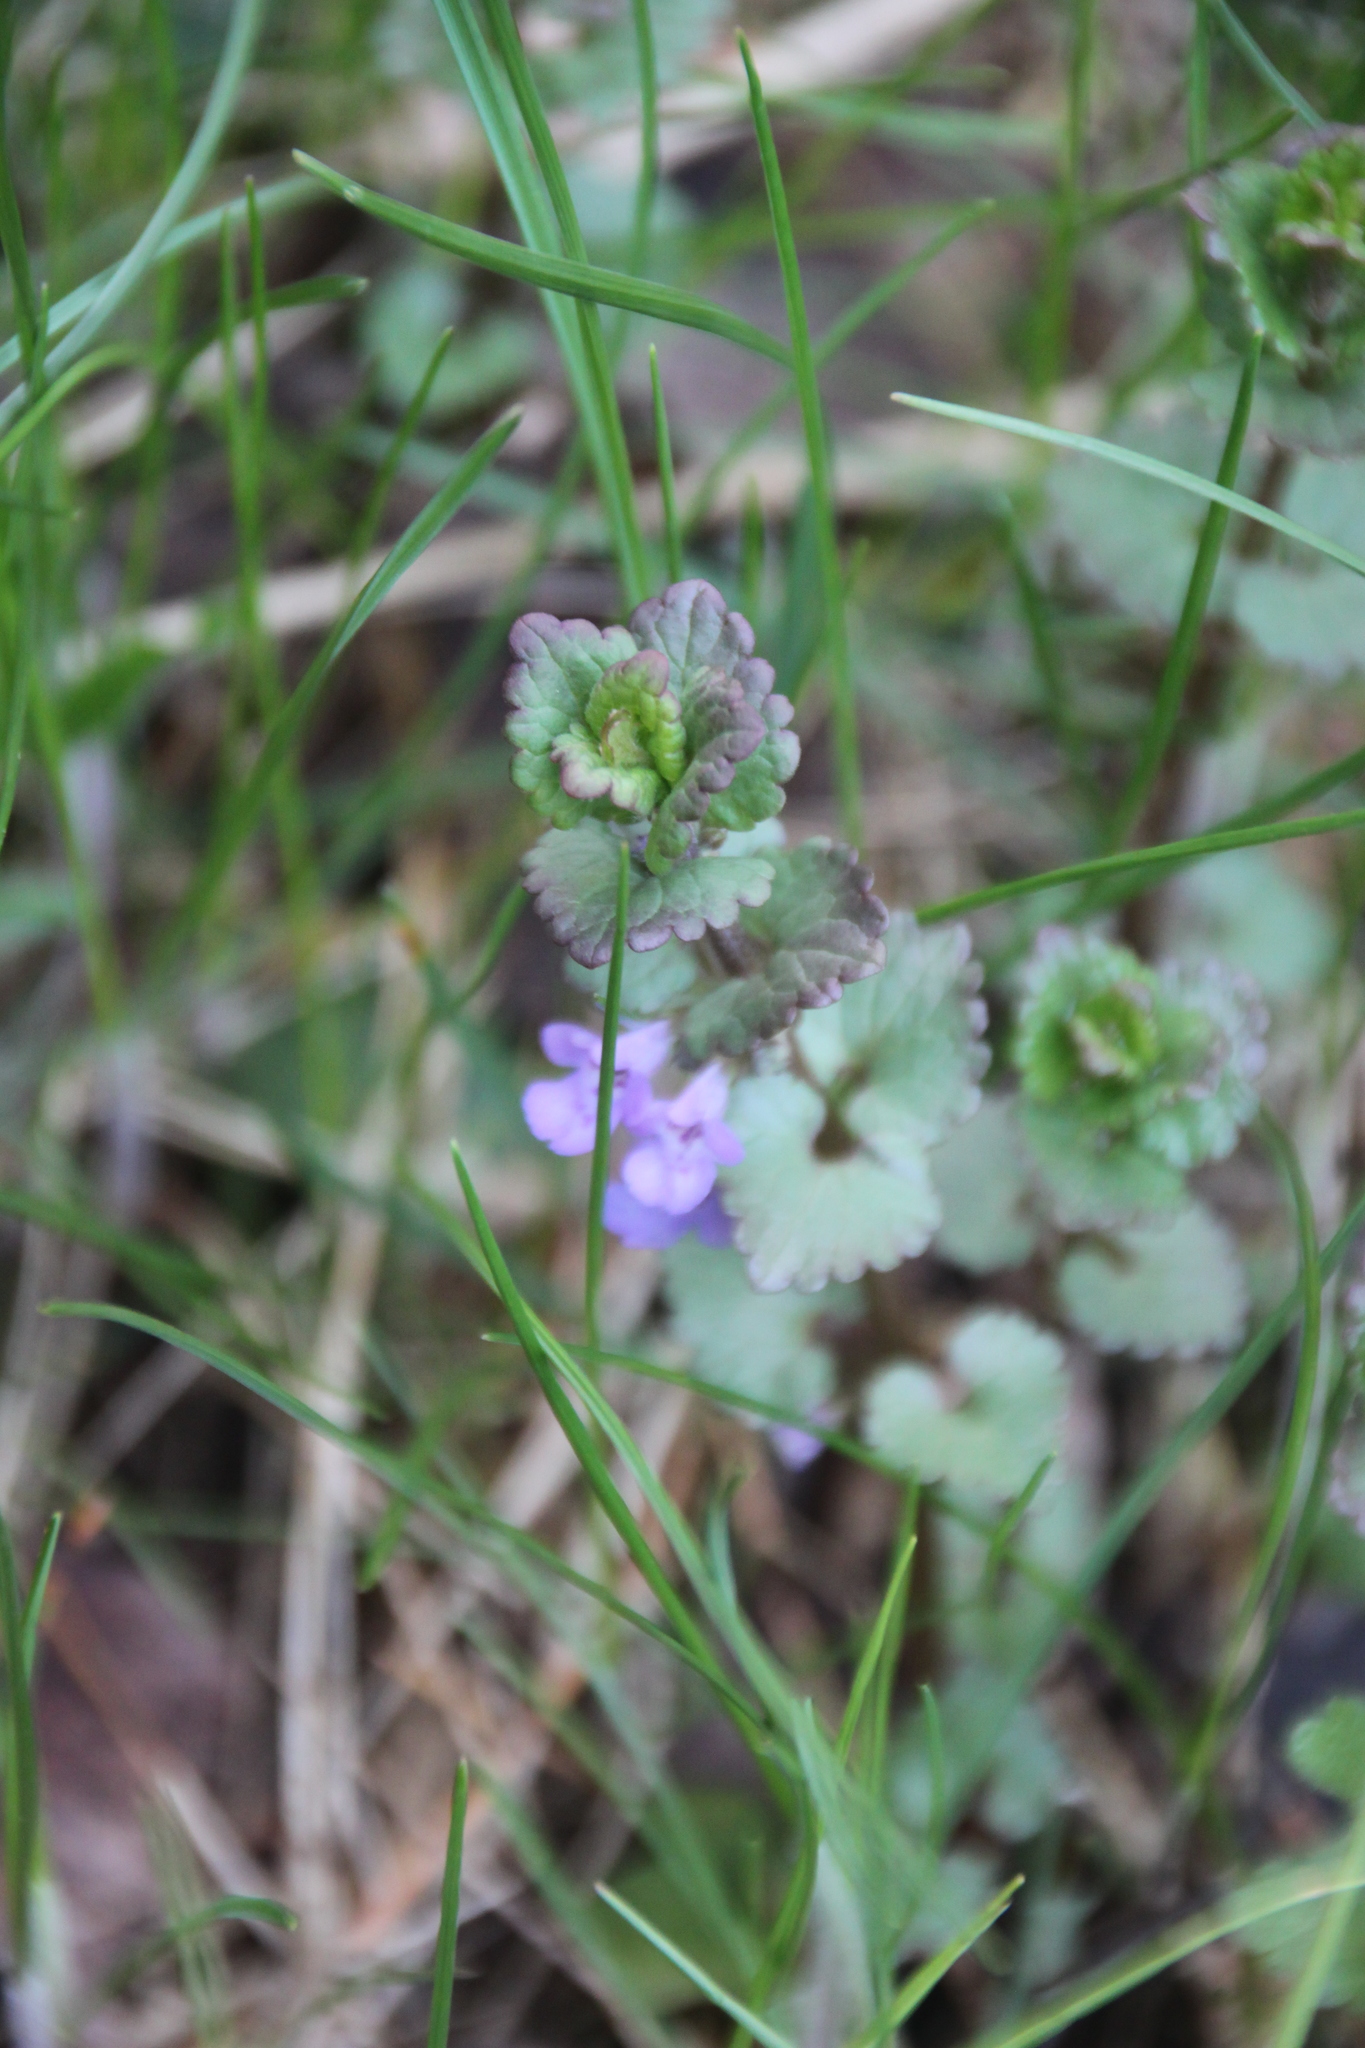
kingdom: Plantae
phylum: Tracheophyta
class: Magnoliopsida
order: Lamiales
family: Lamiaceae
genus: Glechoma
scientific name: Glechoma hederacea
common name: Ground ivy
